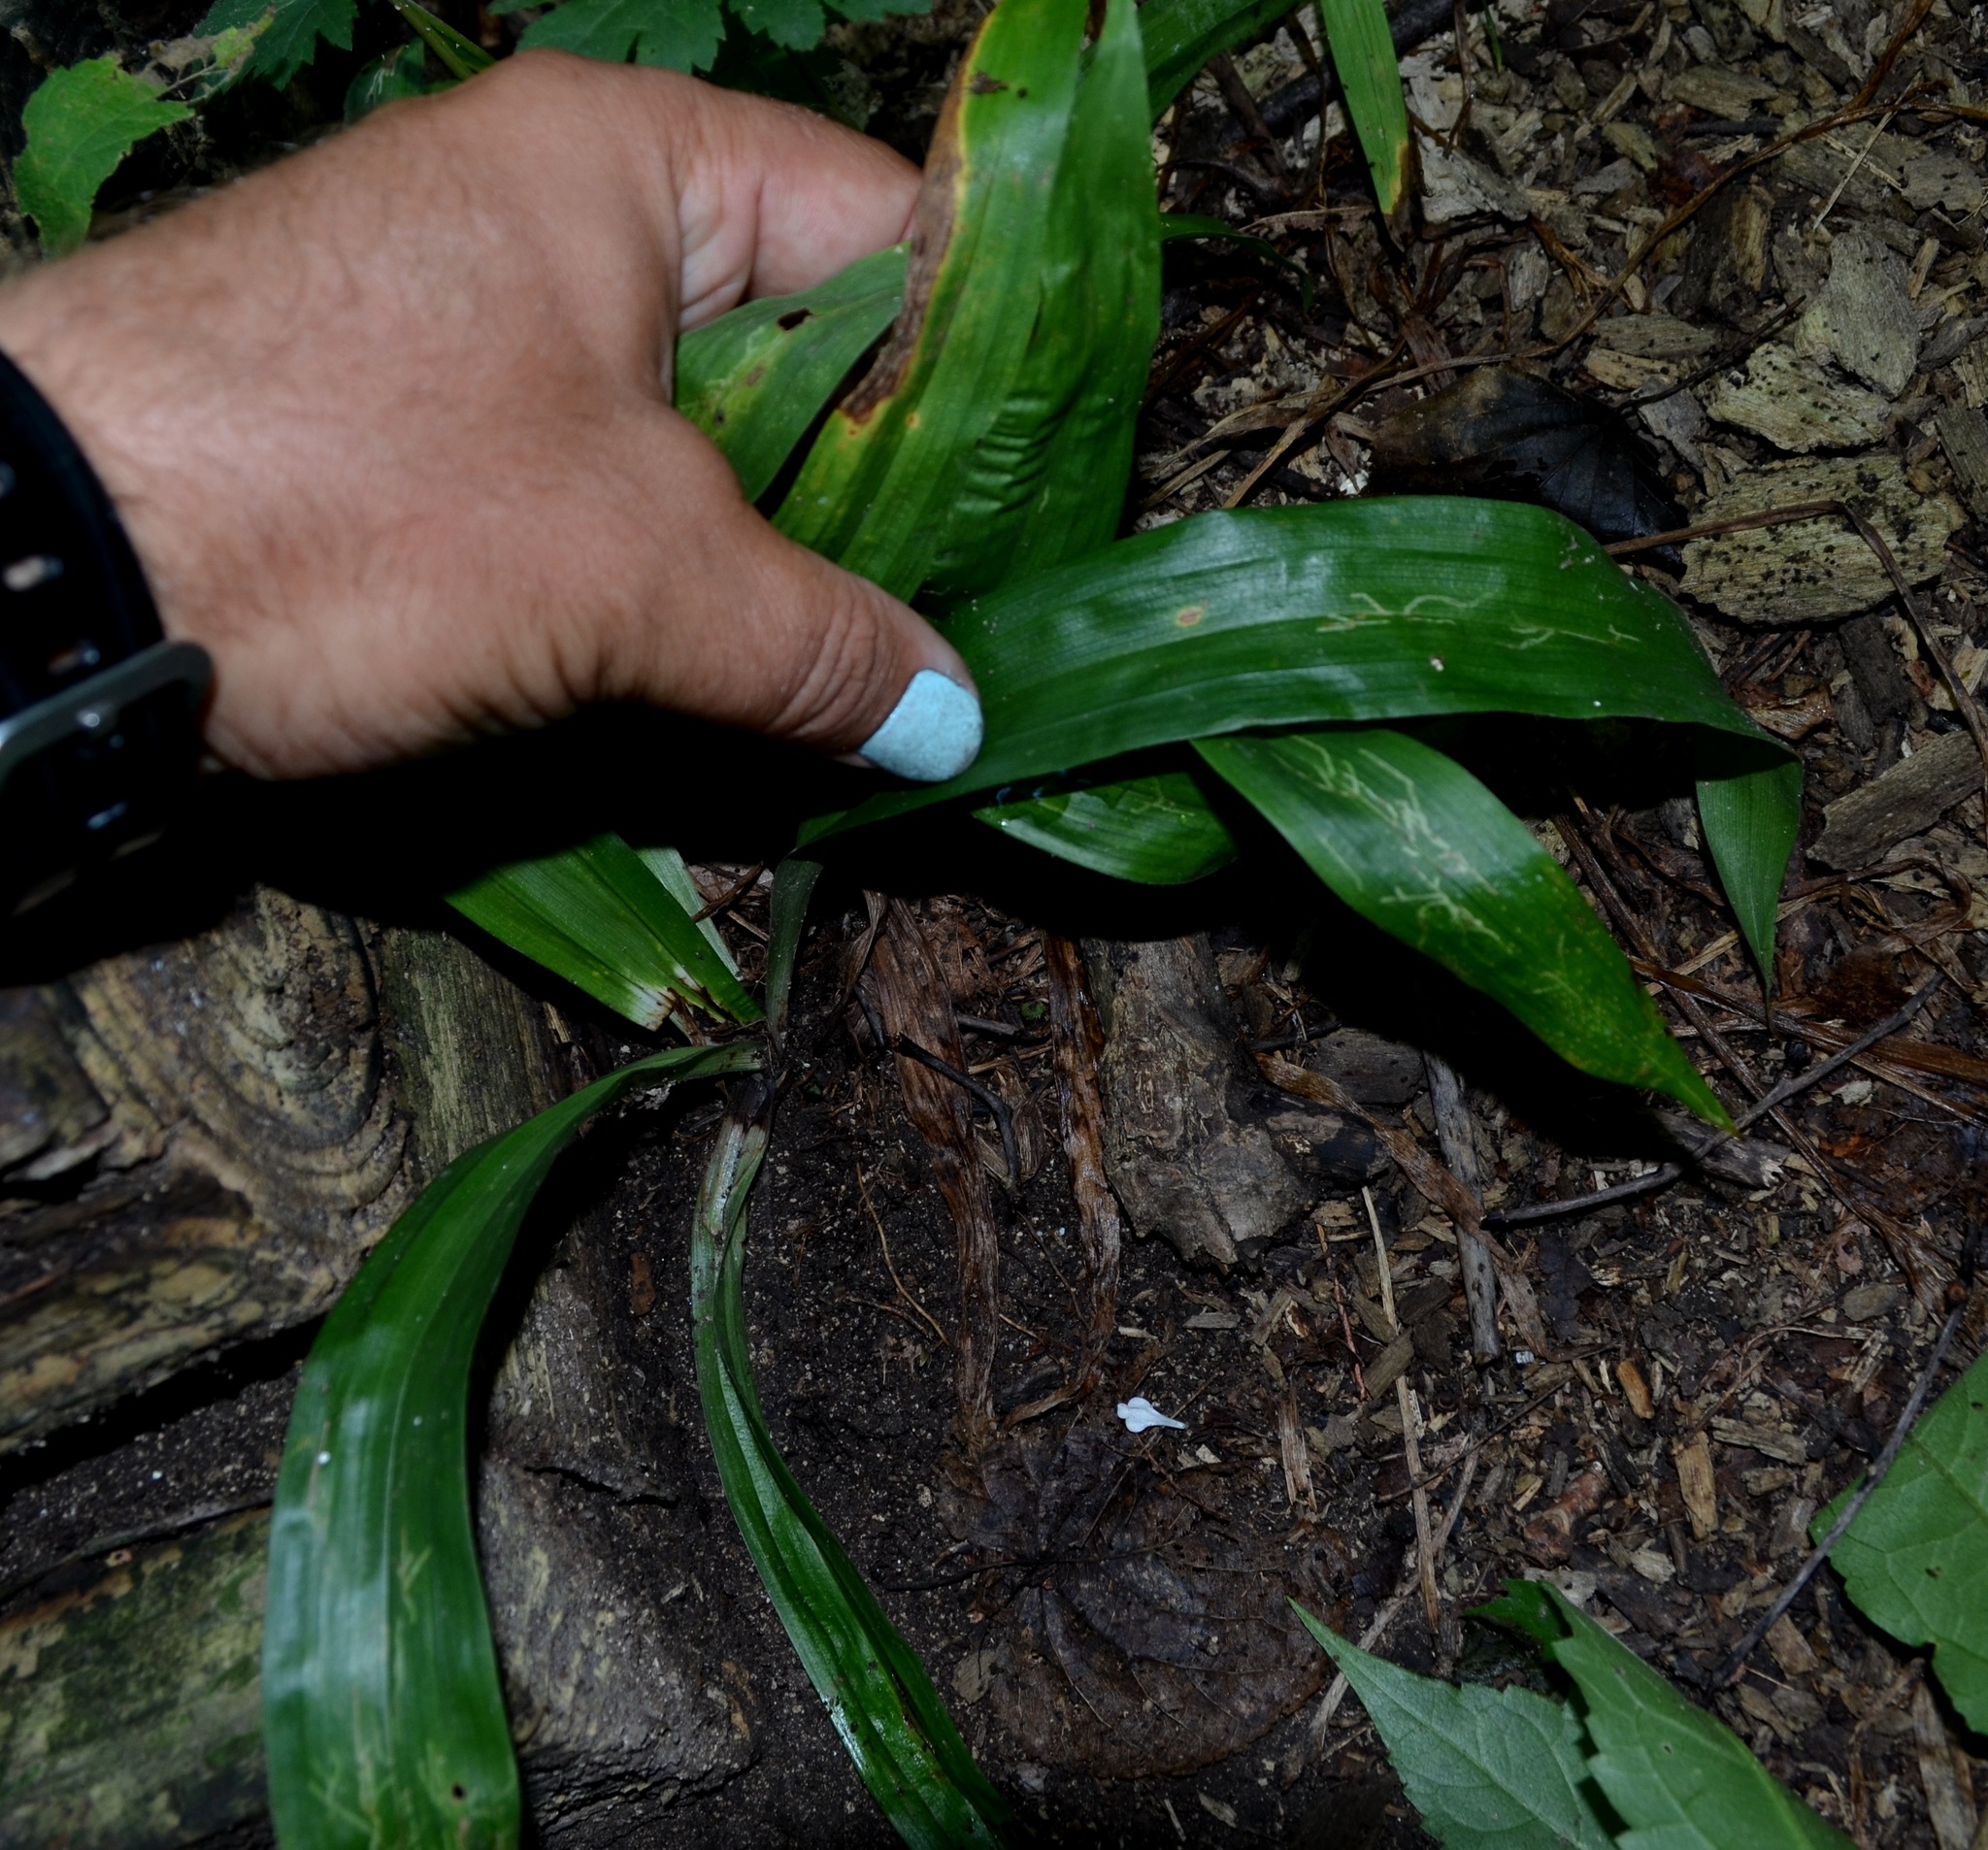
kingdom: Plantae
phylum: Tracheophyta
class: Liliopsida
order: Poales
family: Cyperaceae
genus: Carex
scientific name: Carex albursina
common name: Blunt-scale wood sedge
